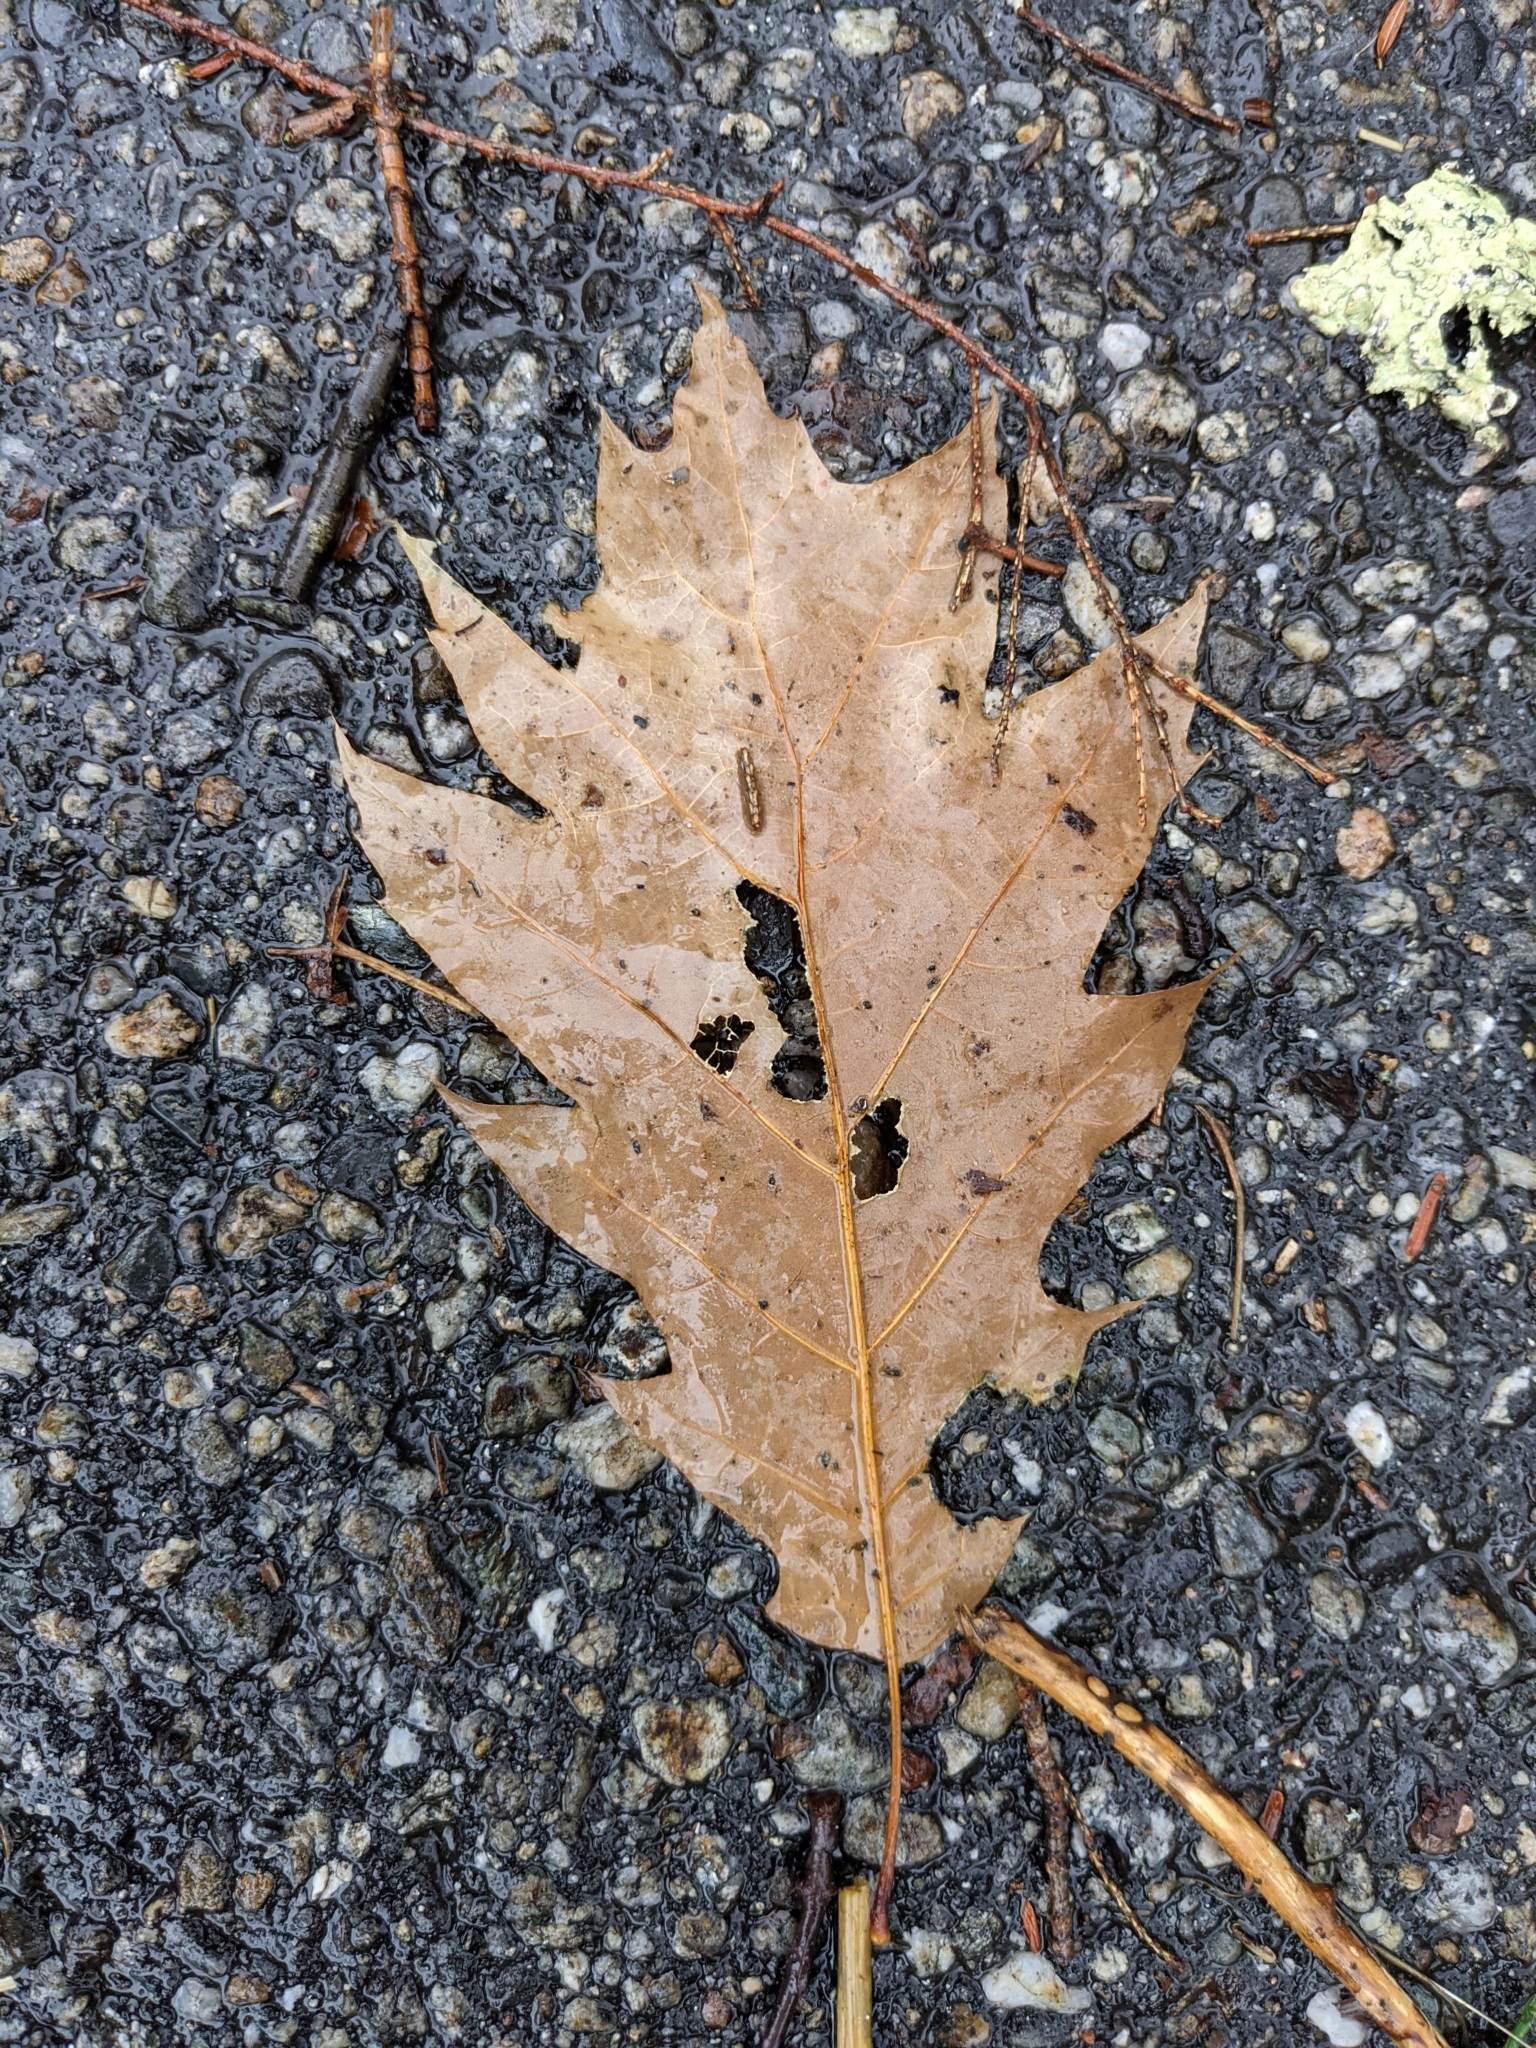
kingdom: Plantae
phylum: Tracheophyta
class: Magnoliopsida
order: Fagales
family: Fagaceae
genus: Quercus
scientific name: Quercus rubra
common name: Red oak
